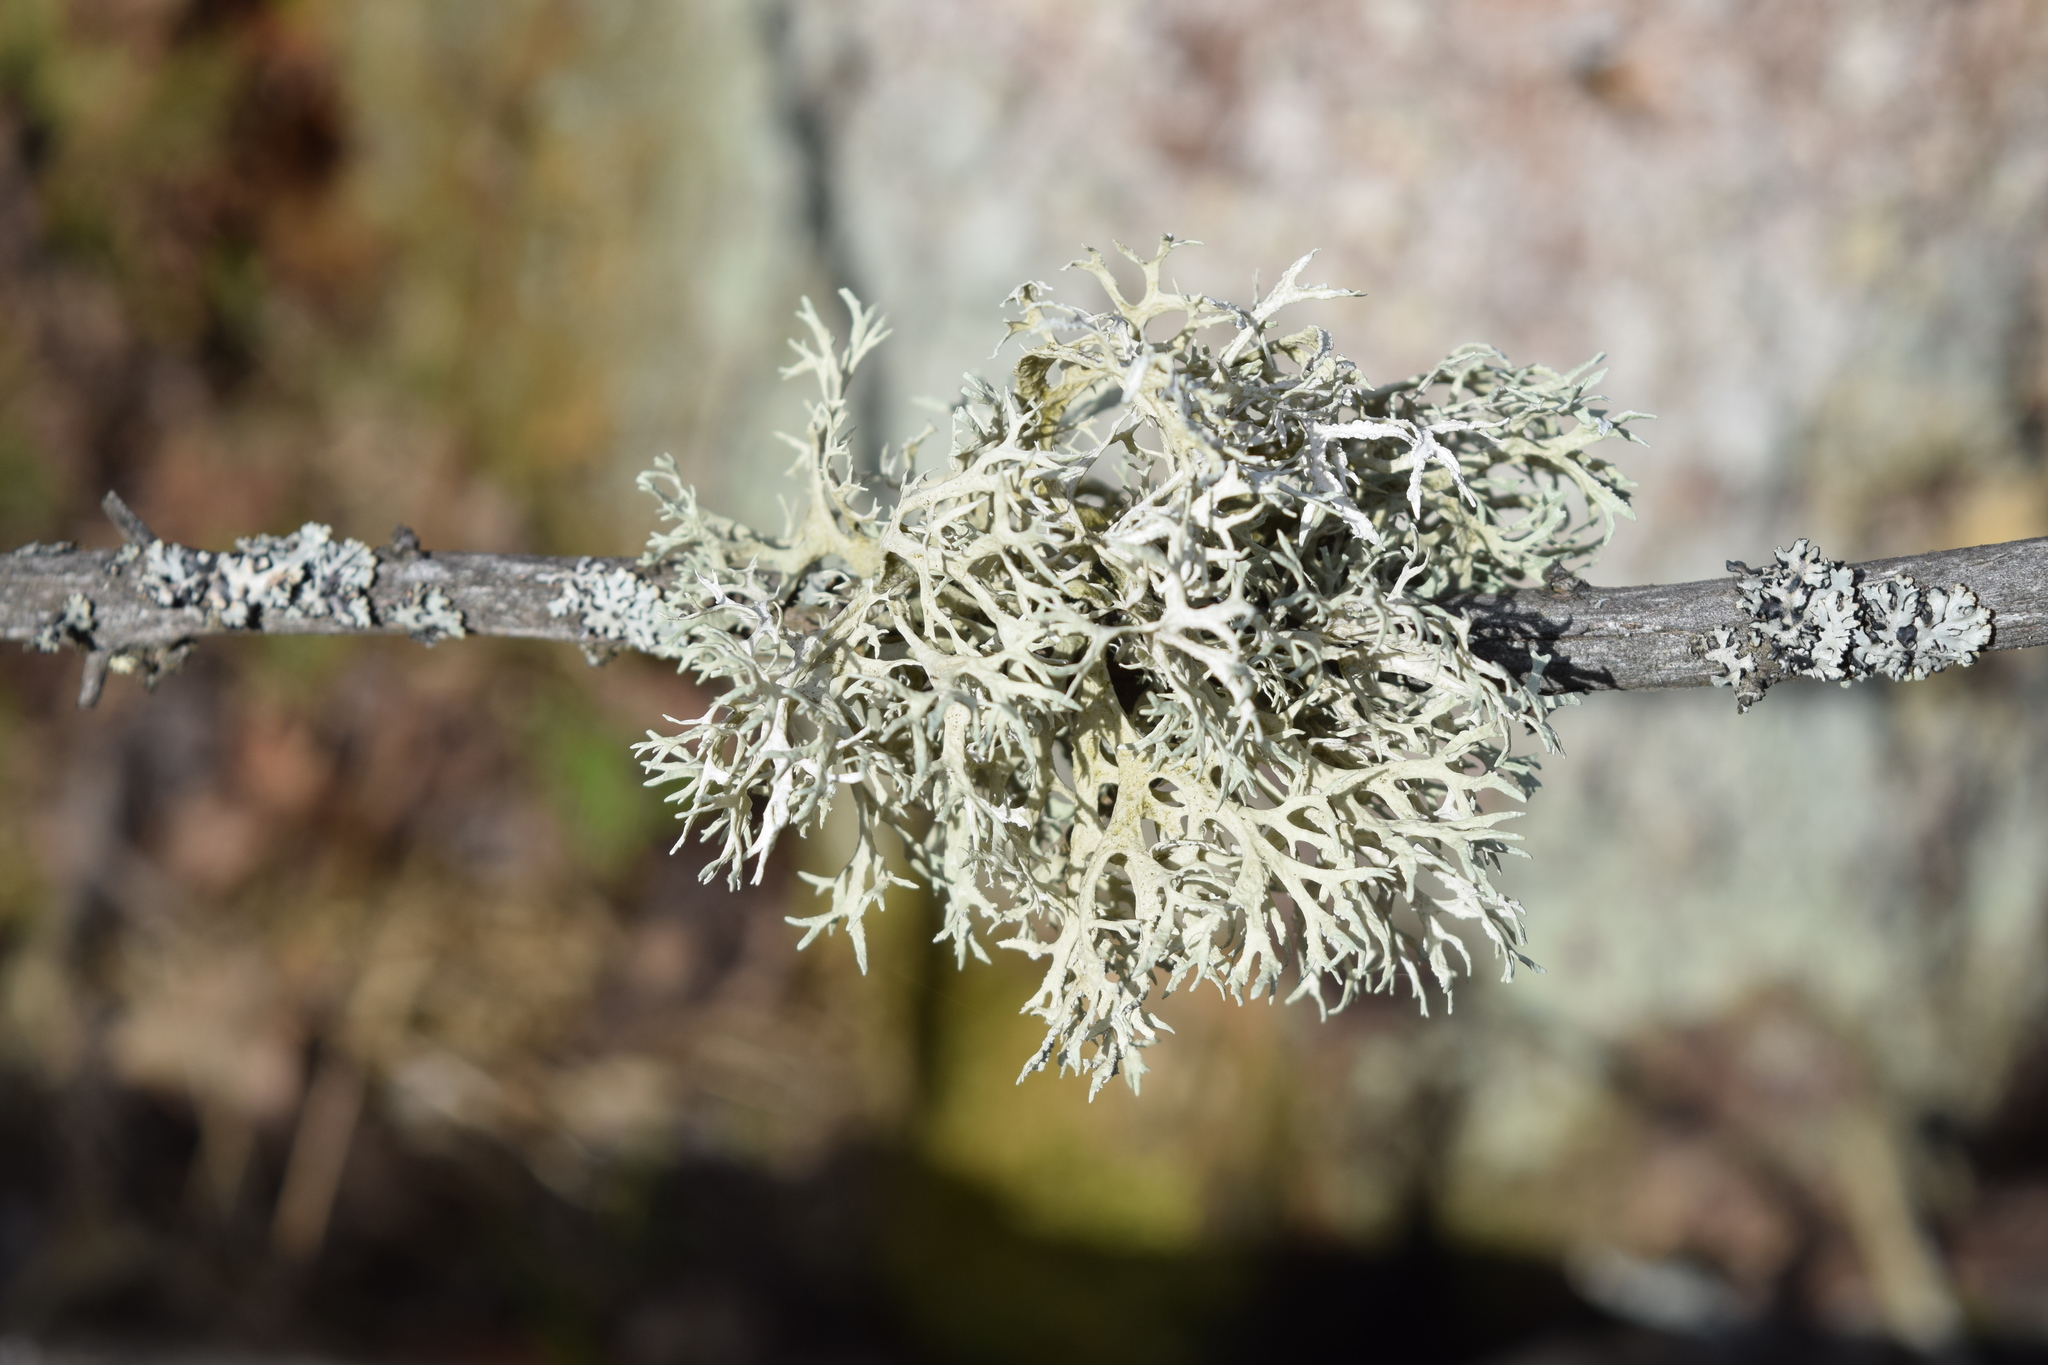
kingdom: Fungi
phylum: Ascomycota
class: Lecanoromycetes
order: Lecanorales
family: Parmeliaceae
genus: Evernia
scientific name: Evernia prunastri
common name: Oak moss
